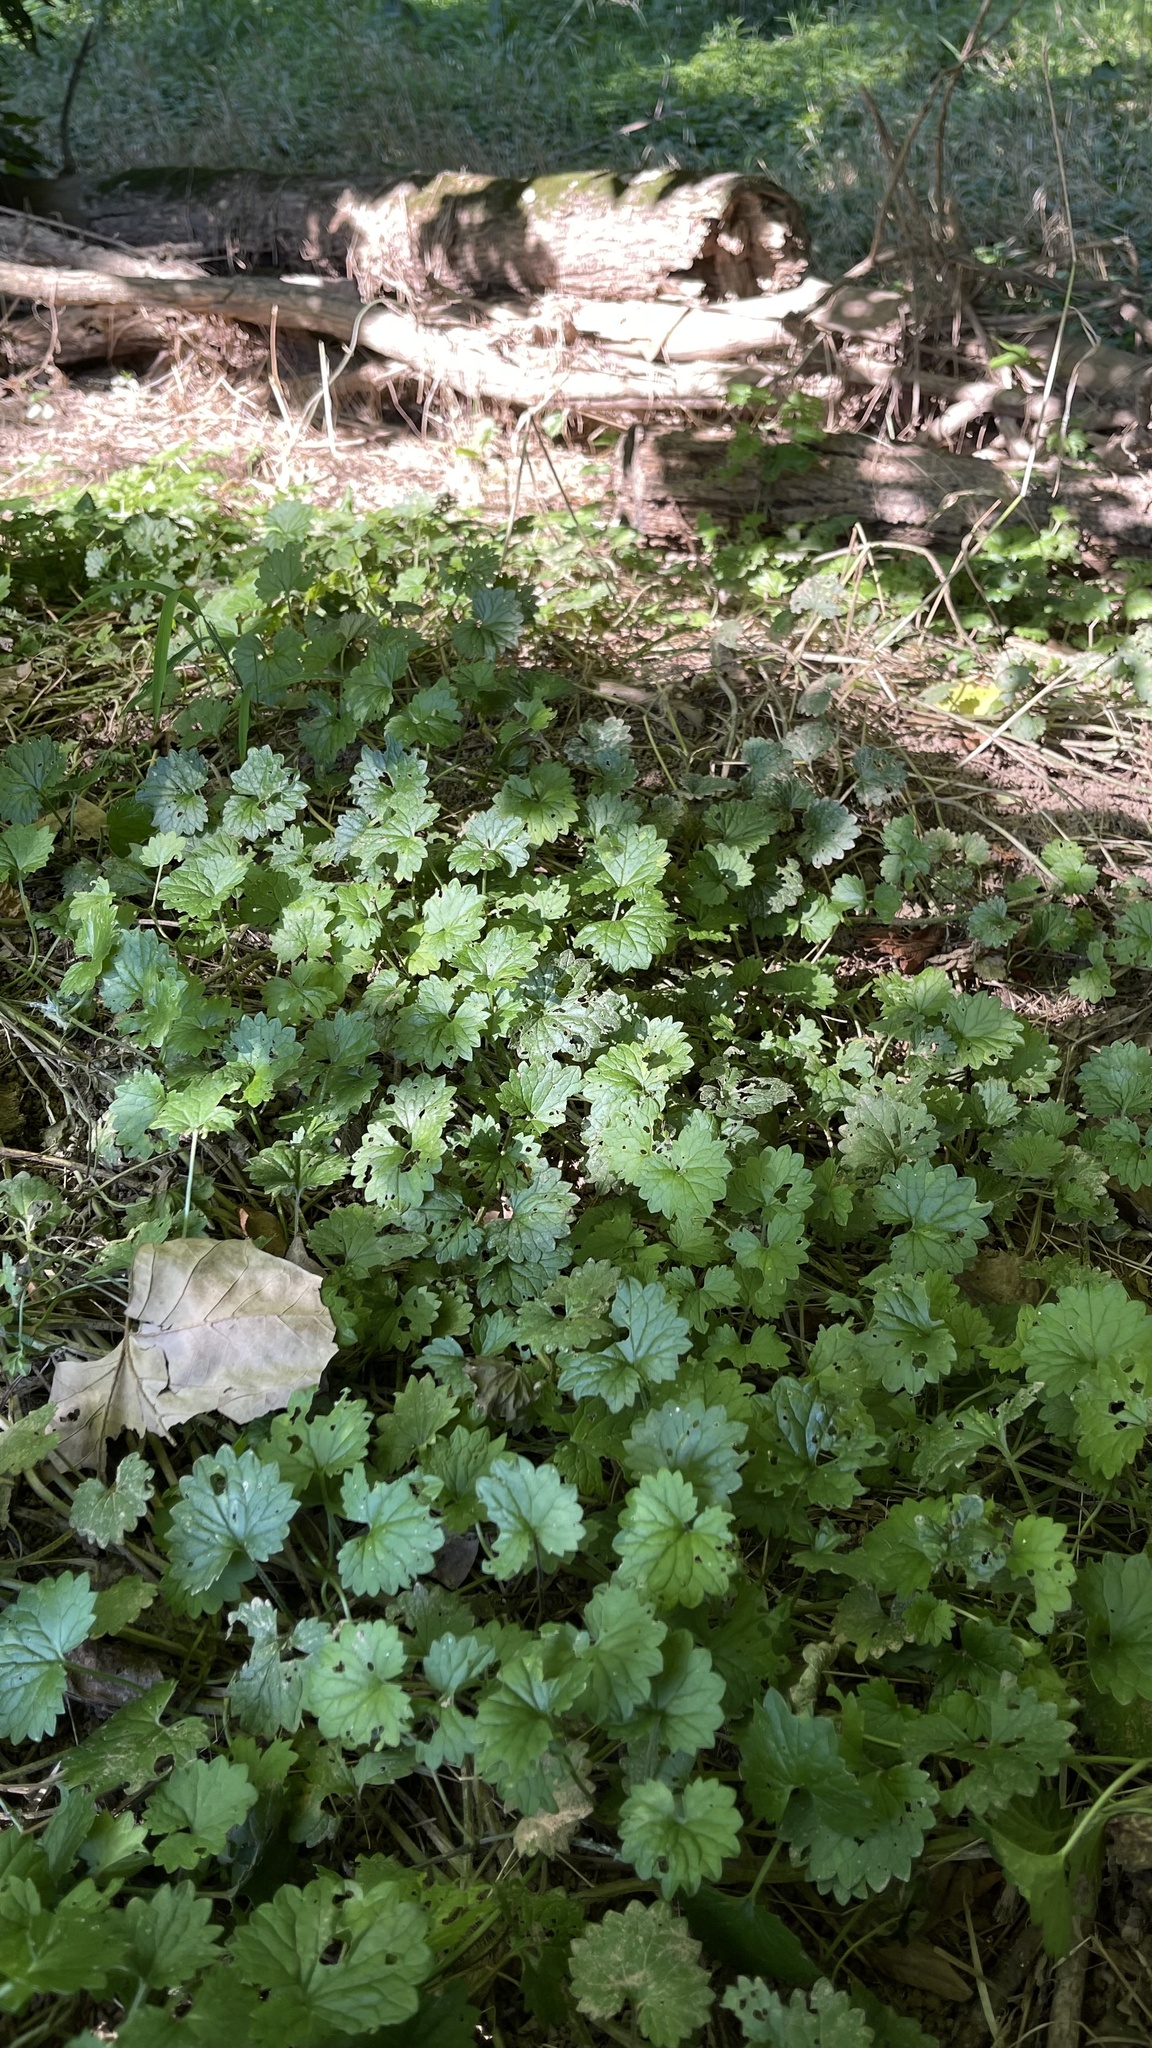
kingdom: Plantae
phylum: Tracheophyta
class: Magnoliopsida
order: Lamiales
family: Lamiaceae
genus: Glechoma
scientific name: Glechoma hederacea
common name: Ground ivy
